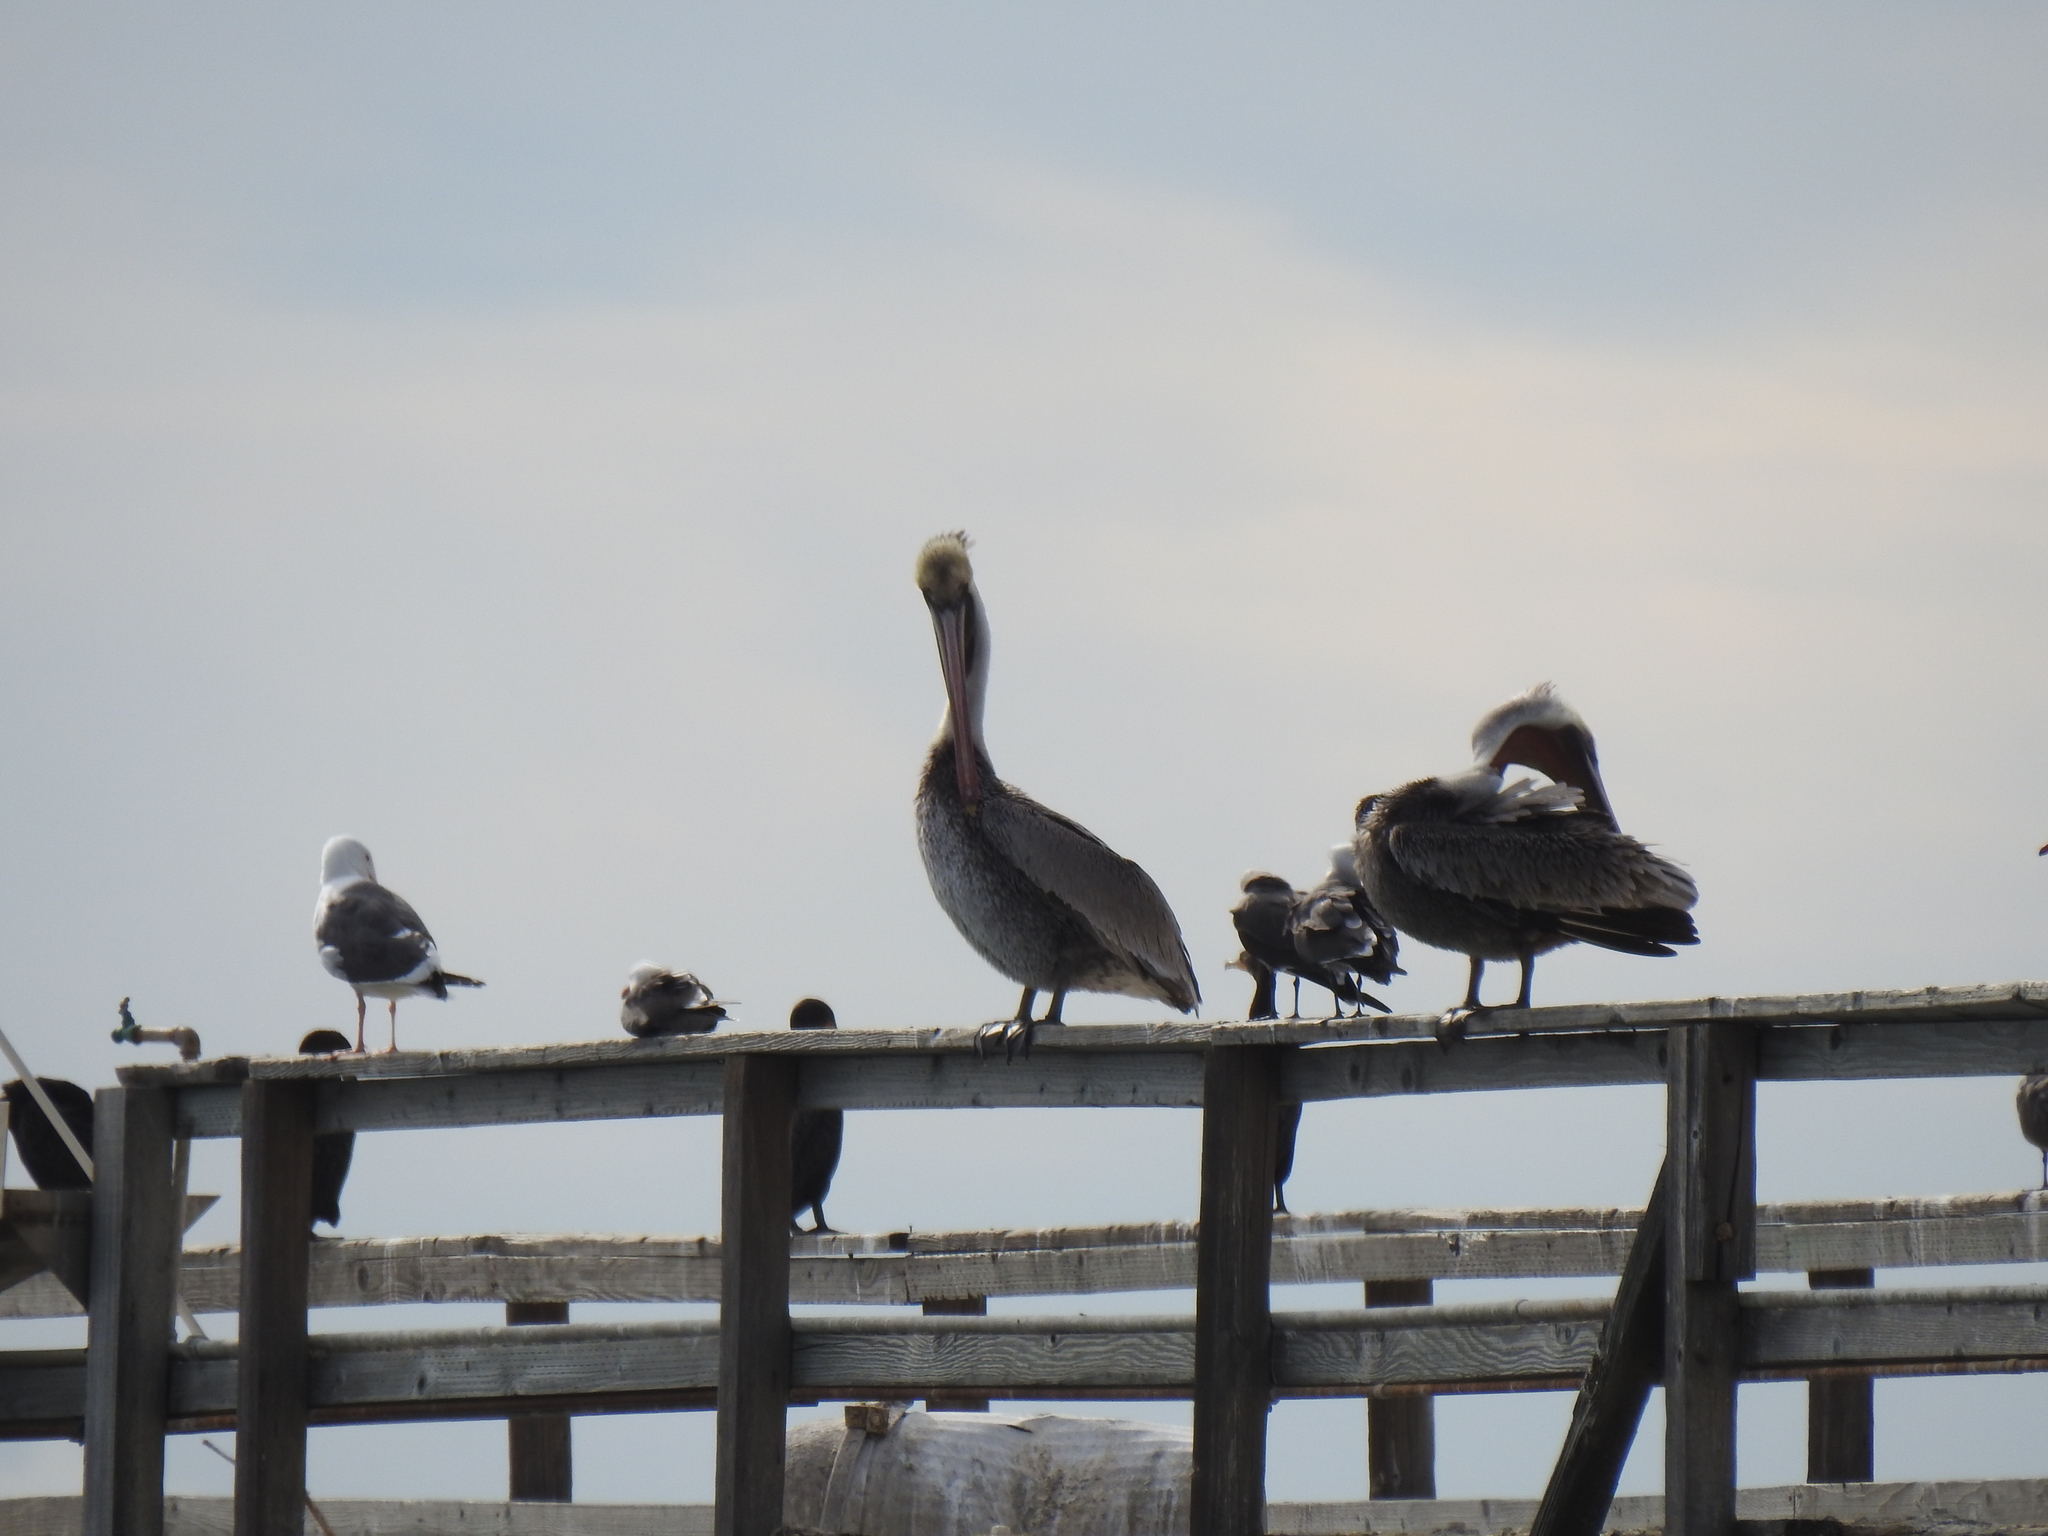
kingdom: Animalia
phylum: Chordata
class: Aves
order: Pelecaniformes
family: Pelecanidae
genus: Pelecanus
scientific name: Pelecanus occidentalis
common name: Brown pelican
